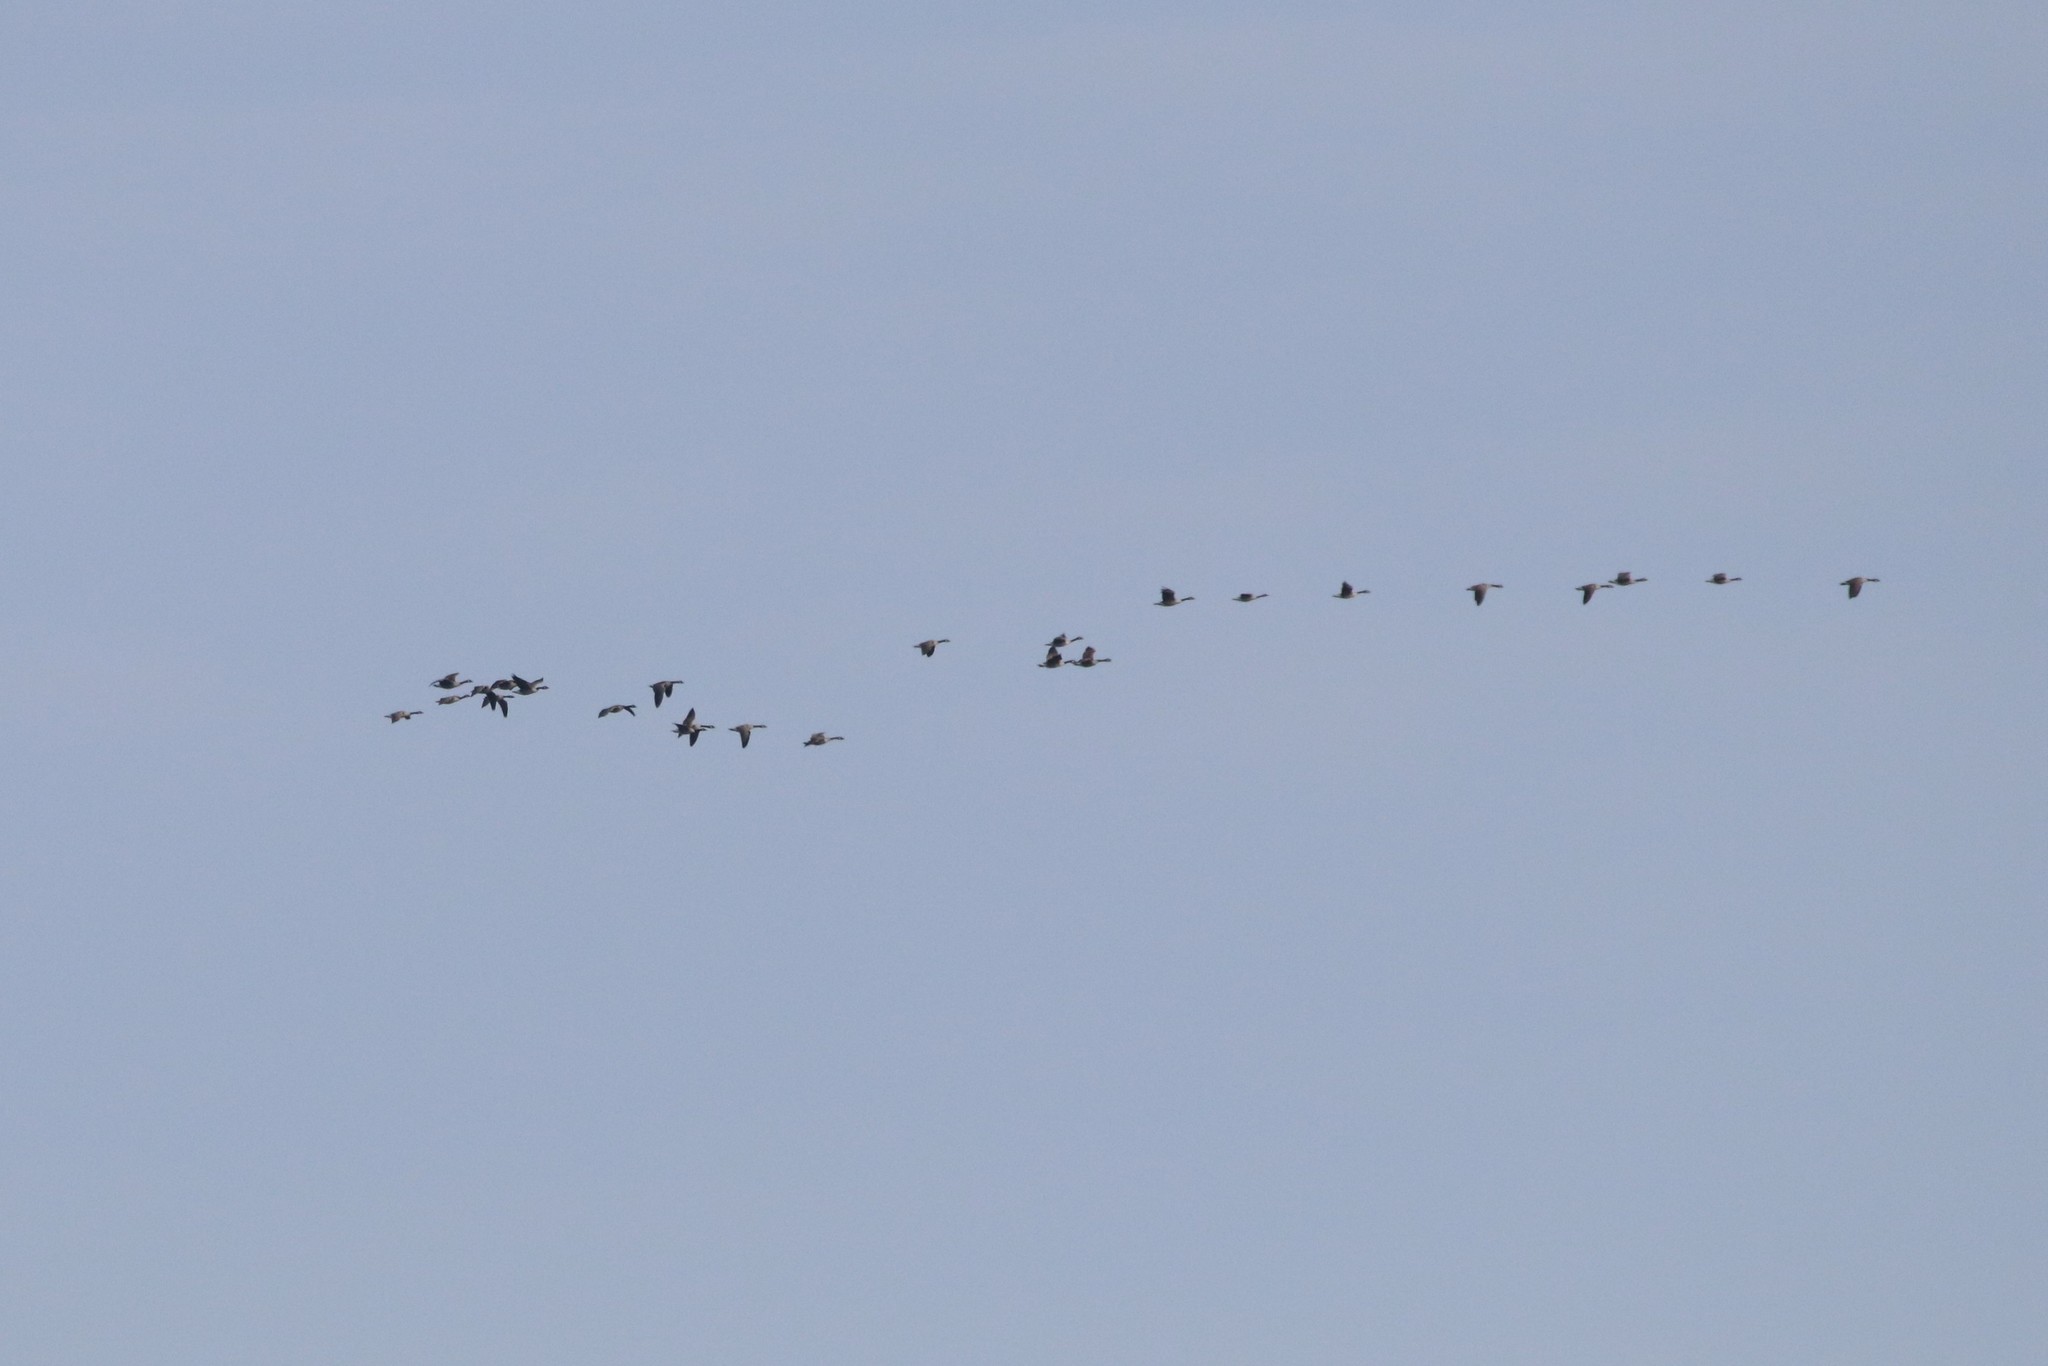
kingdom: Animalia
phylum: Chordata
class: Aves
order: Anseriformes
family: Anatidae
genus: Branta
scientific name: Branta canadensis
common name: Canada goose
